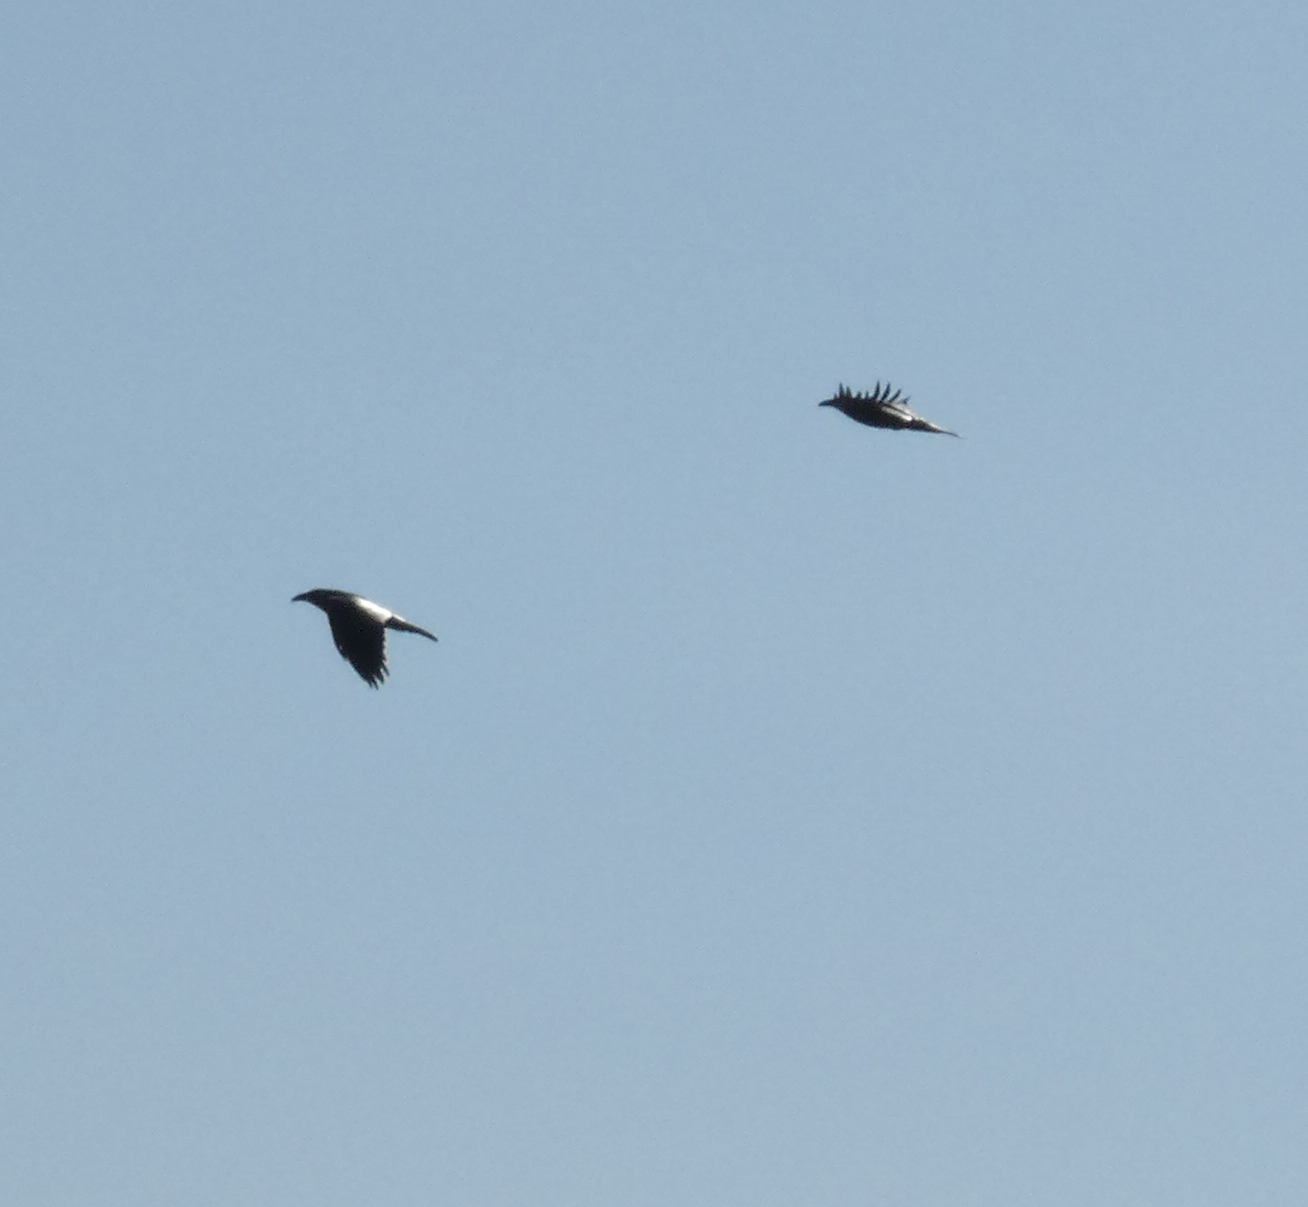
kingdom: Animalia
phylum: Chordata
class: Aves
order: Passeriformes
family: Corvidae
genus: Corvus
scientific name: Corvus corax
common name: Common raven
